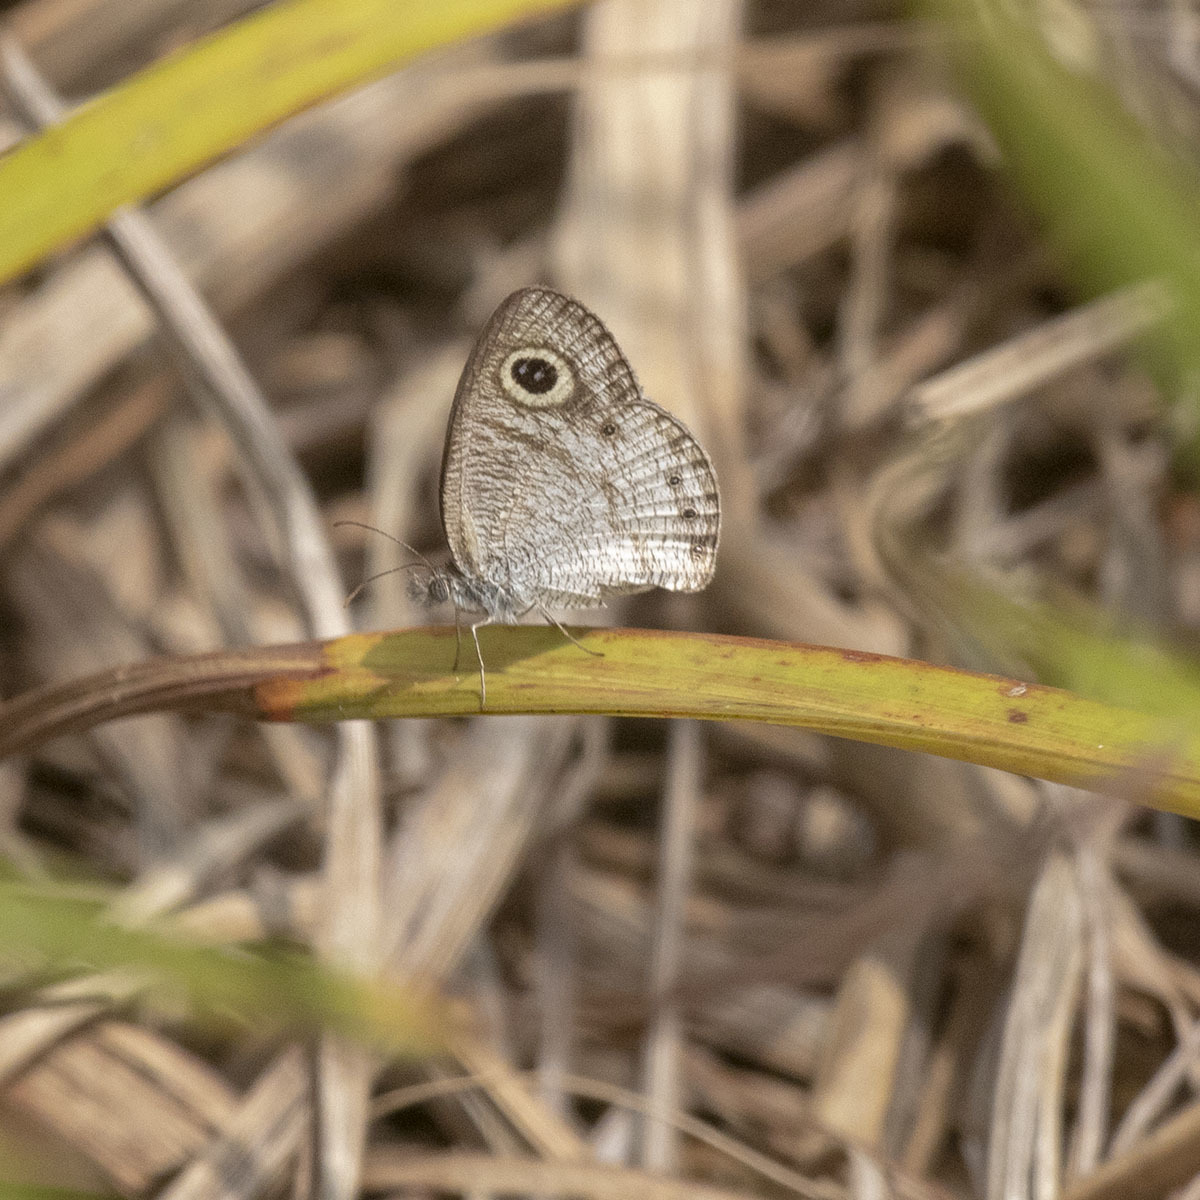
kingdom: Animalia
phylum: Arthropoda
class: Insecta
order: Lepidoptera
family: Nymphalidae
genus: Ypthima
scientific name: Ypthima huebneri
